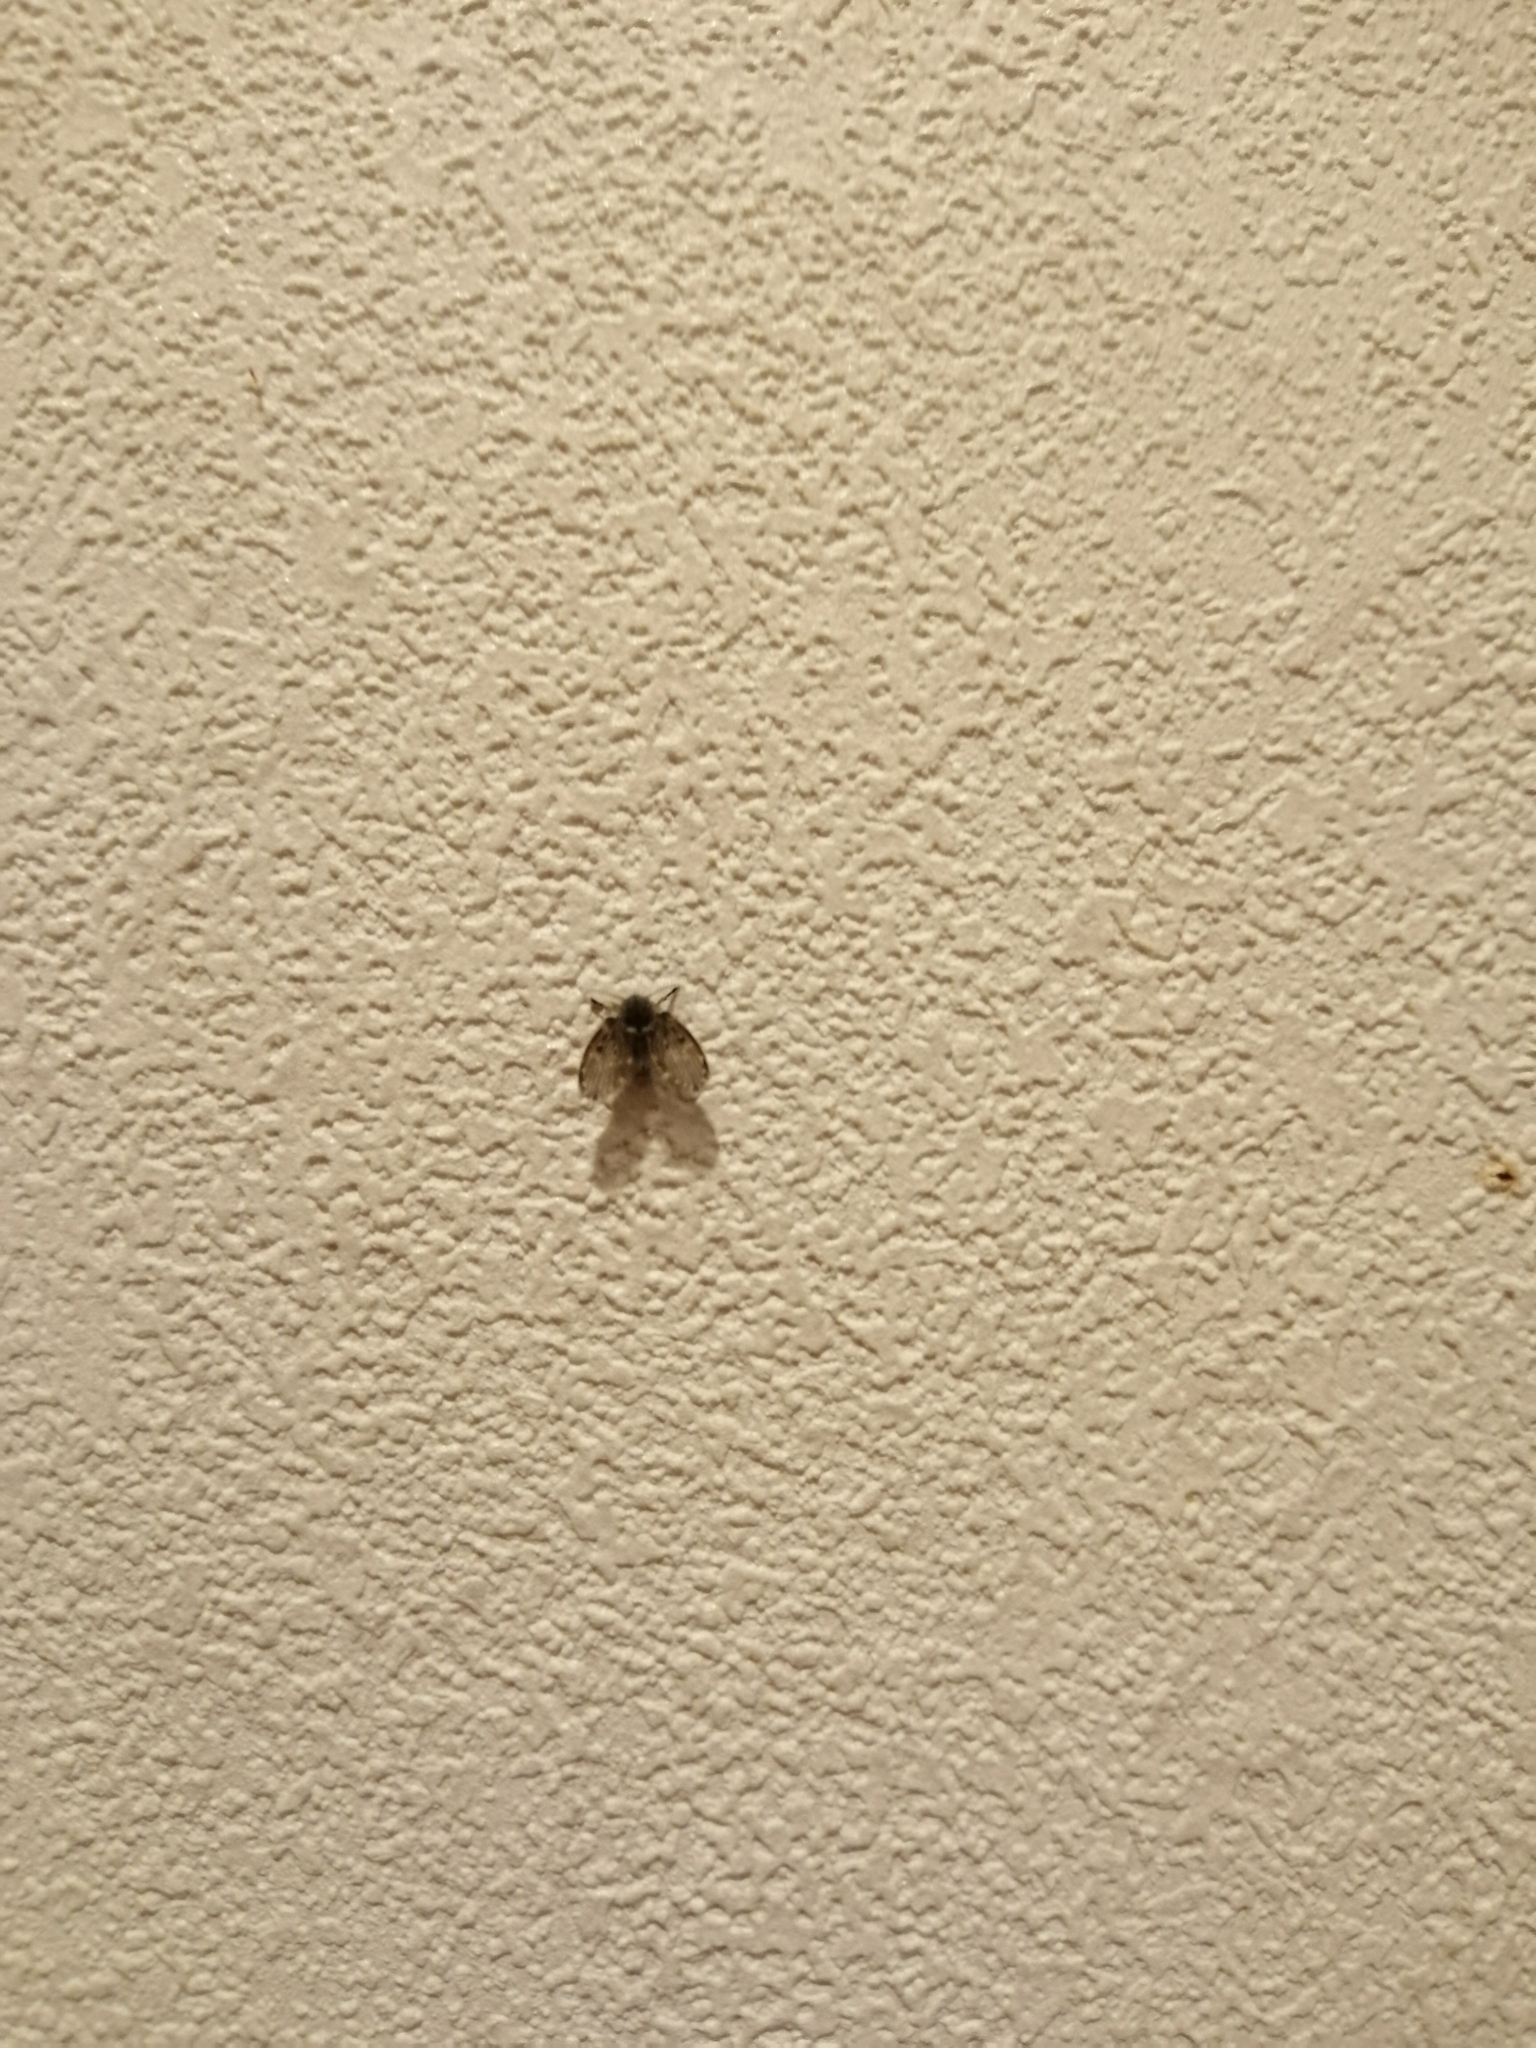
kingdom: Animalia
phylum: Arthropoda
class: Insecta
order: Diptera
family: Psychodidae
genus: Clogmia
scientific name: Clogmia albipunctatus
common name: White-spotted moth fly
